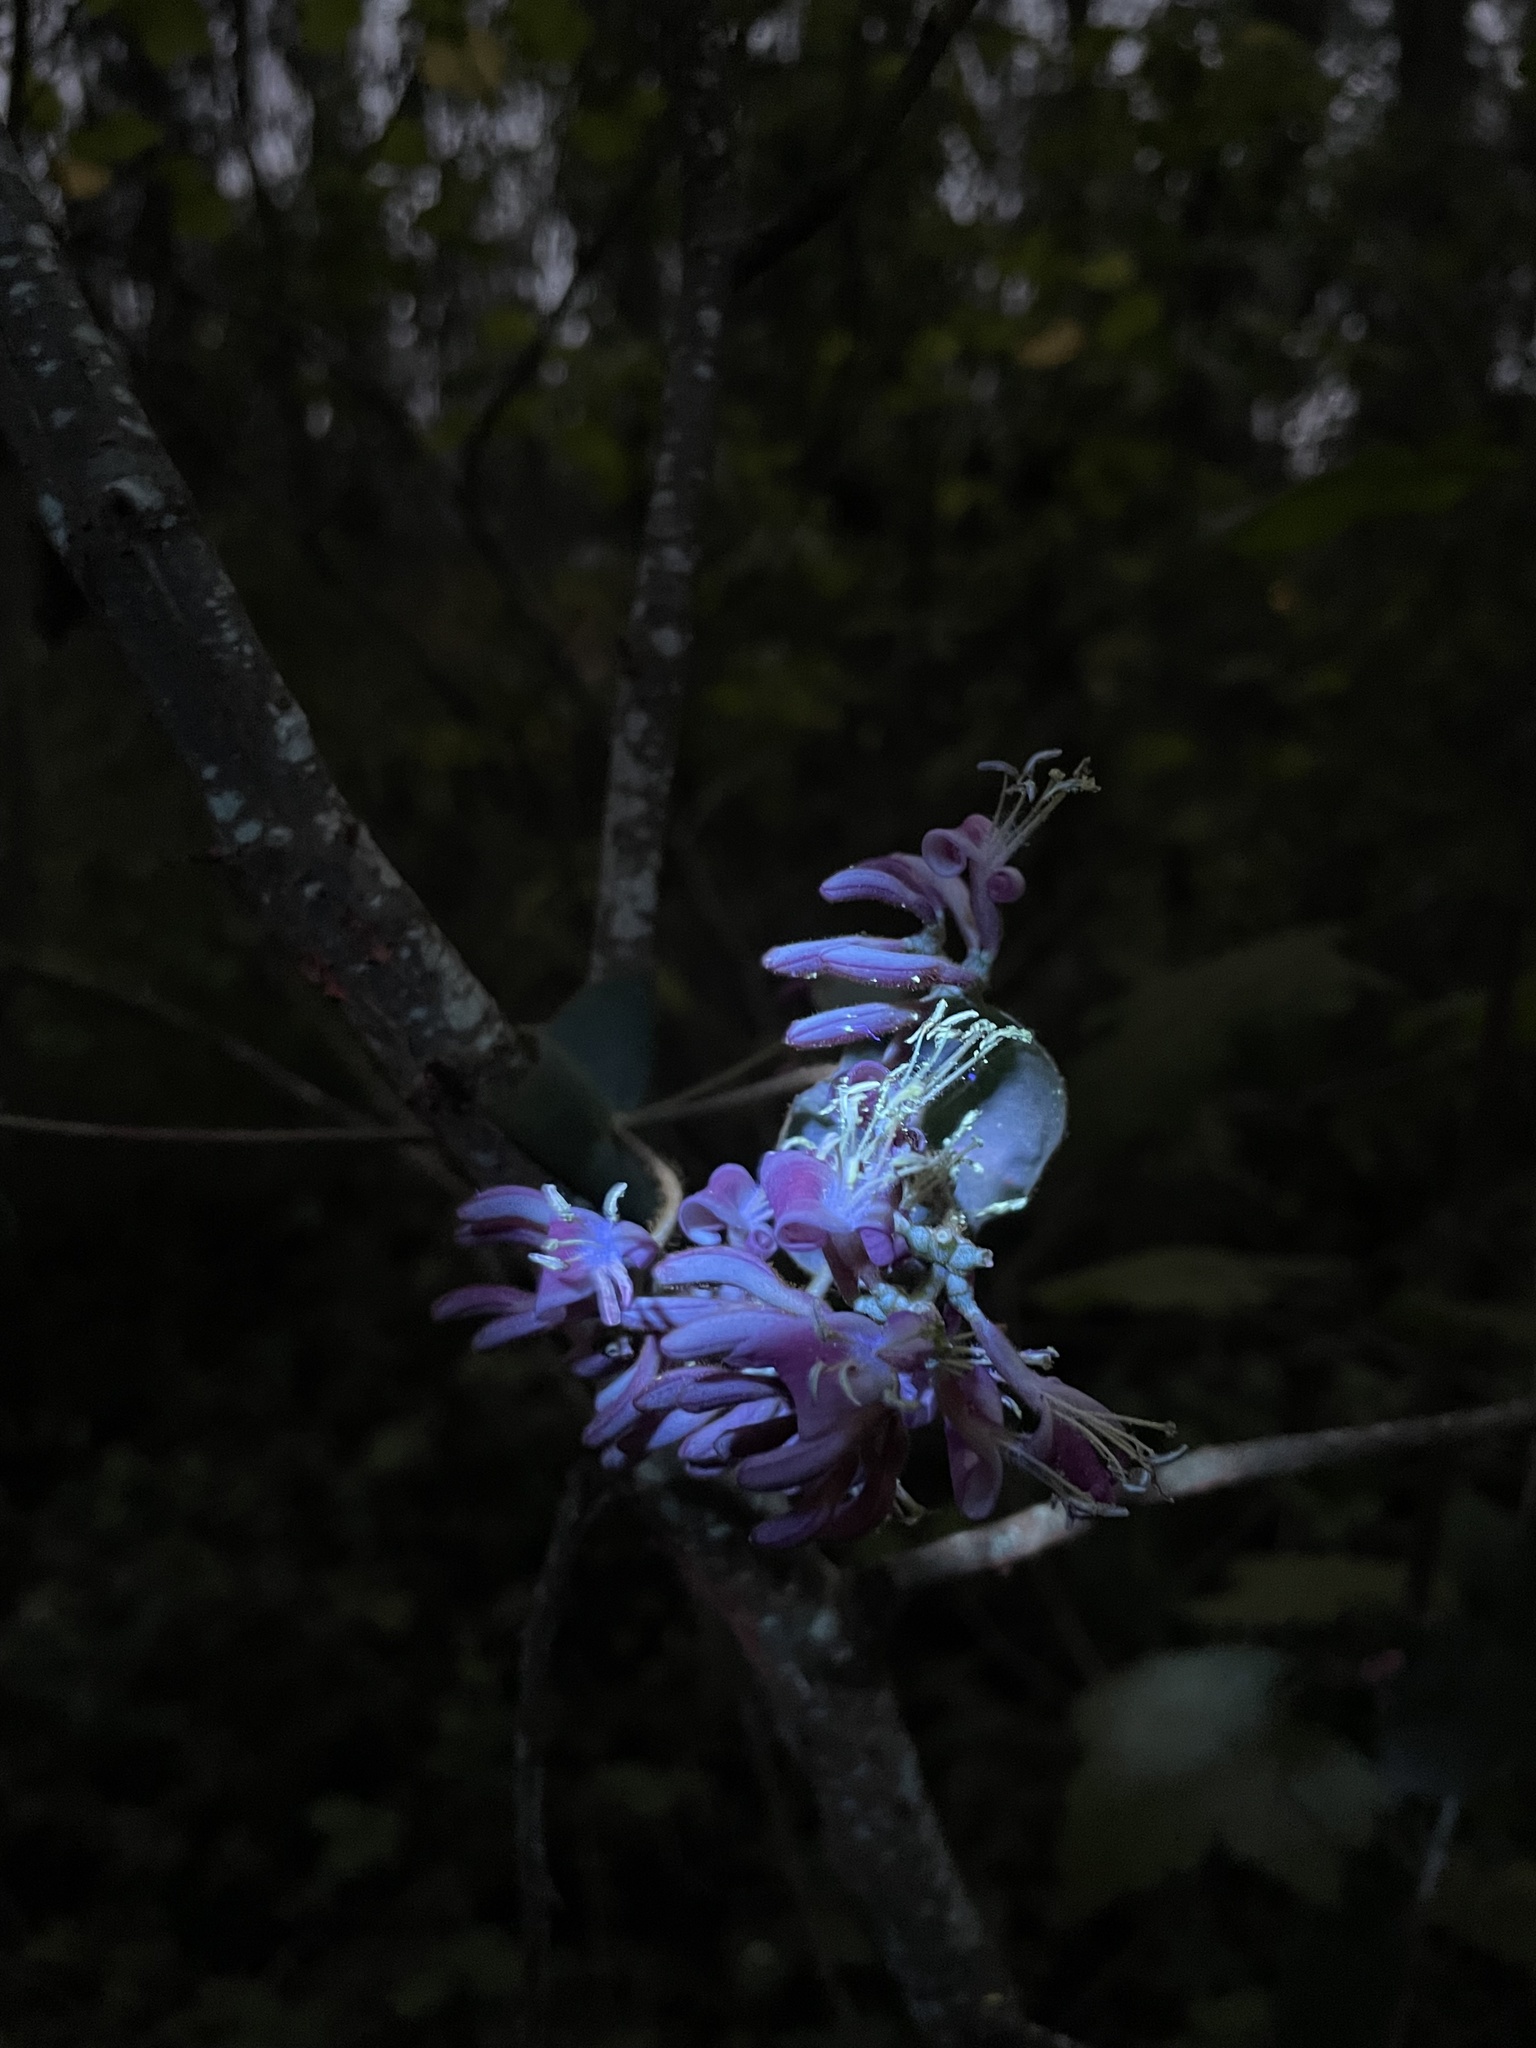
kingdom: Plantae
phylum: Tracheophyta
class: Magnoliopsida
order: Dipsacales
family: Caprifoliaceae
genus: Lonicera
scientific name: Lonicera hispidula
